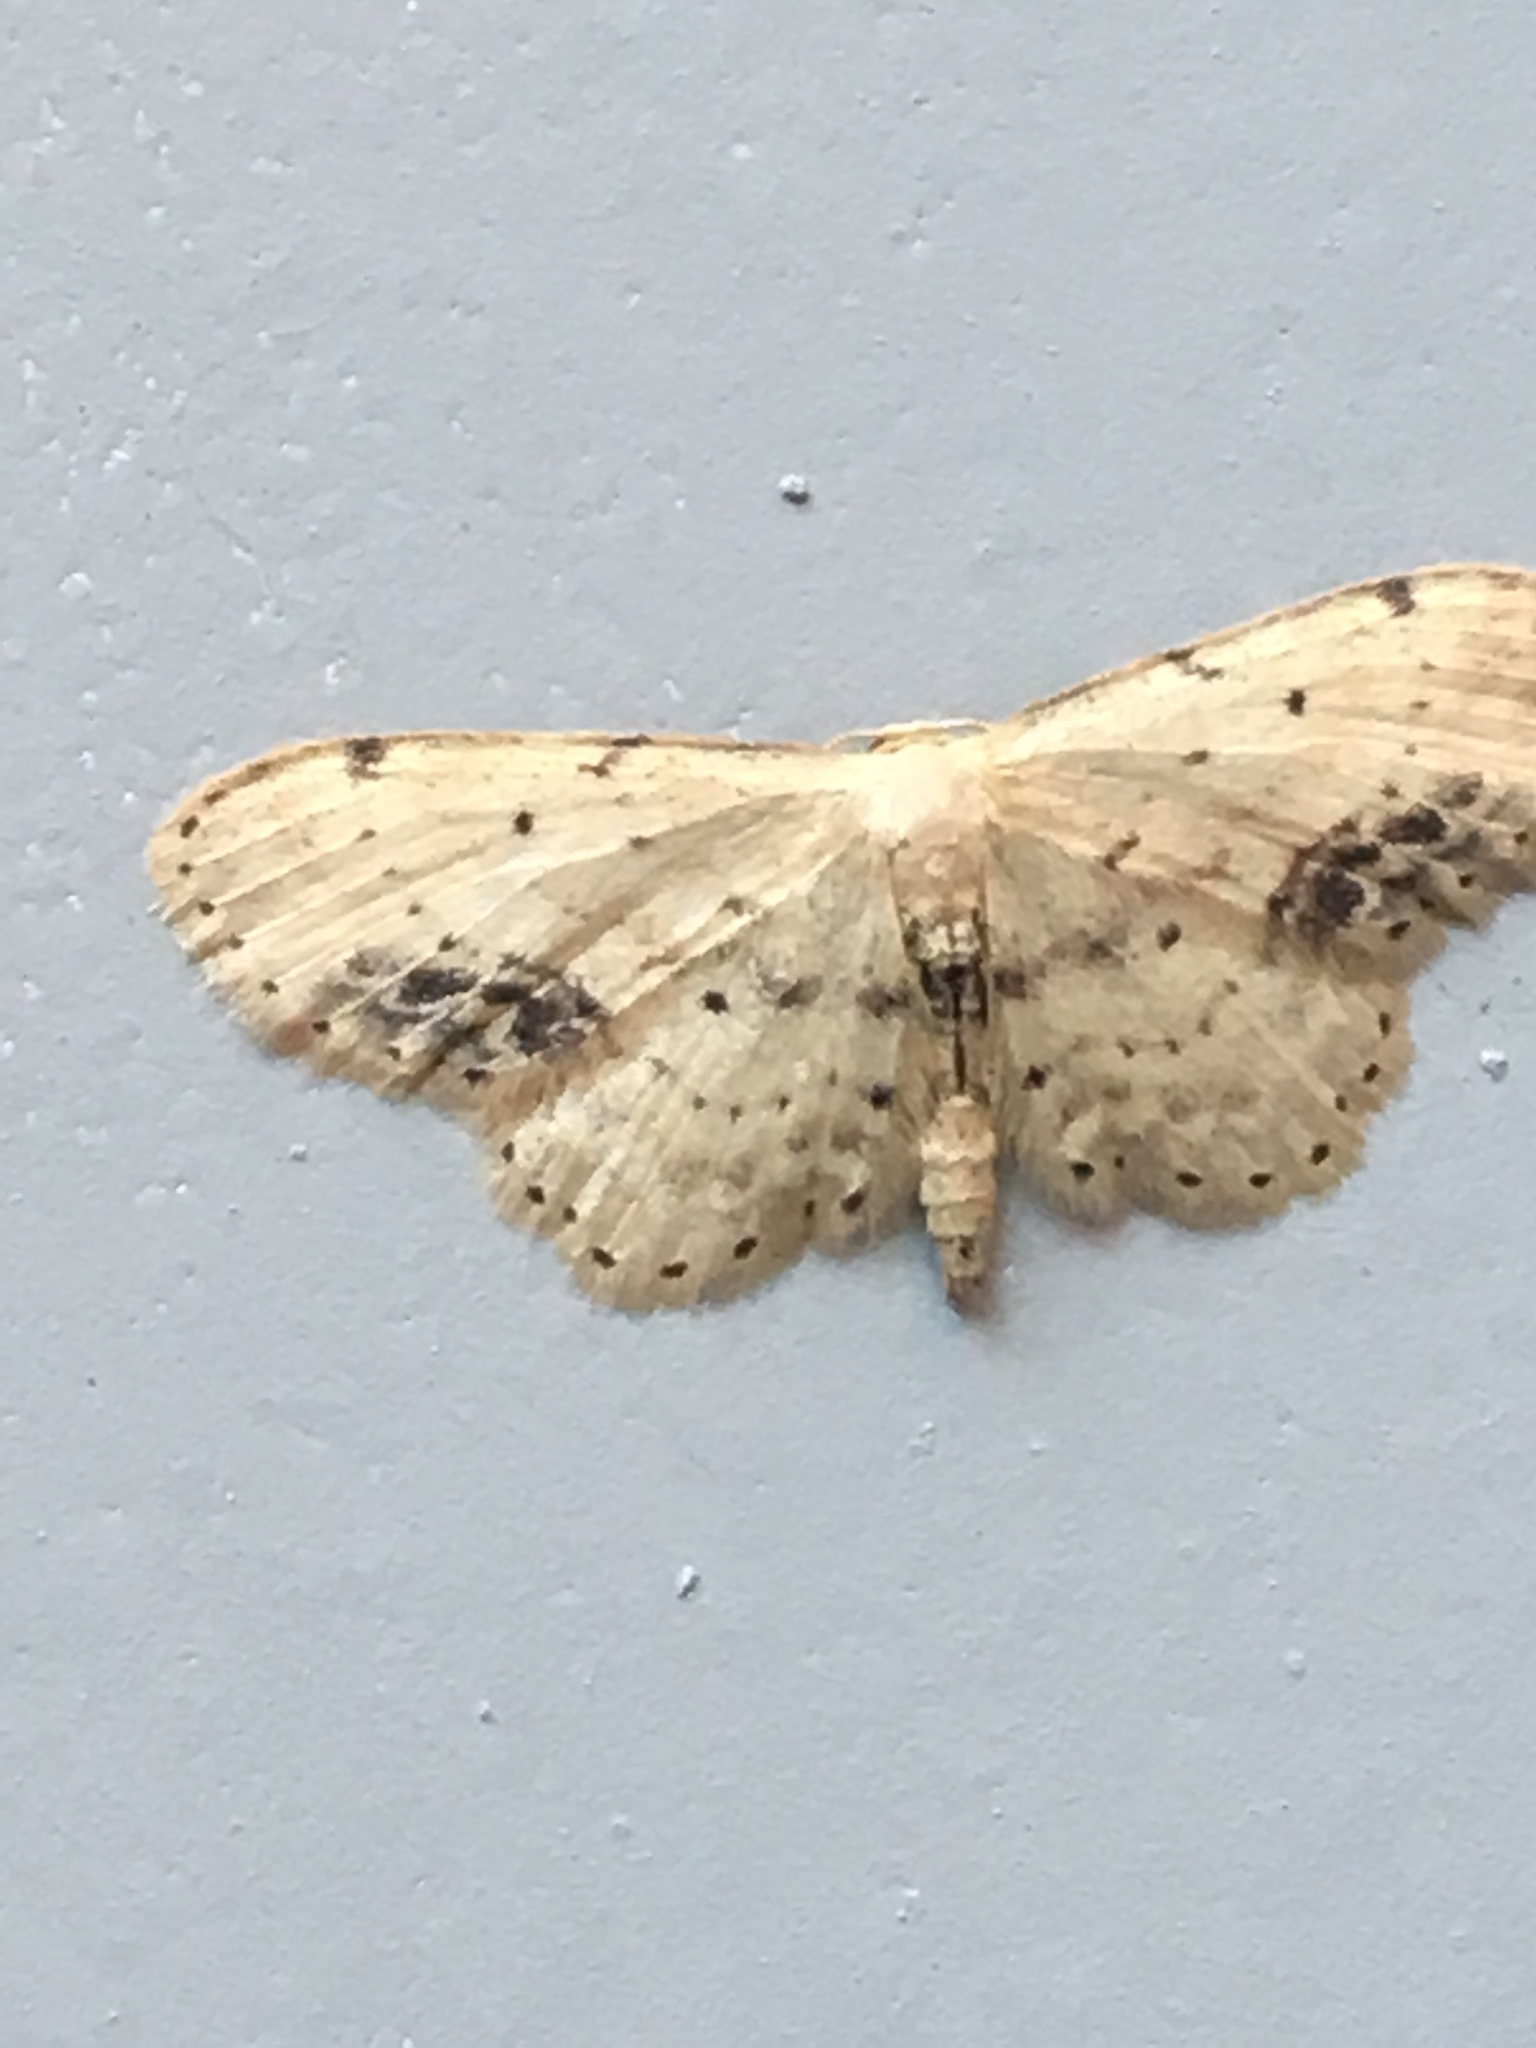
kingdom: Animalia
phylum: Arthropoda
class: Insecta
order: Lepidoptera
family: Geometridae
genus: Idaea
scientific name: Idaea dimidiata
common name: Single-dotted wave
